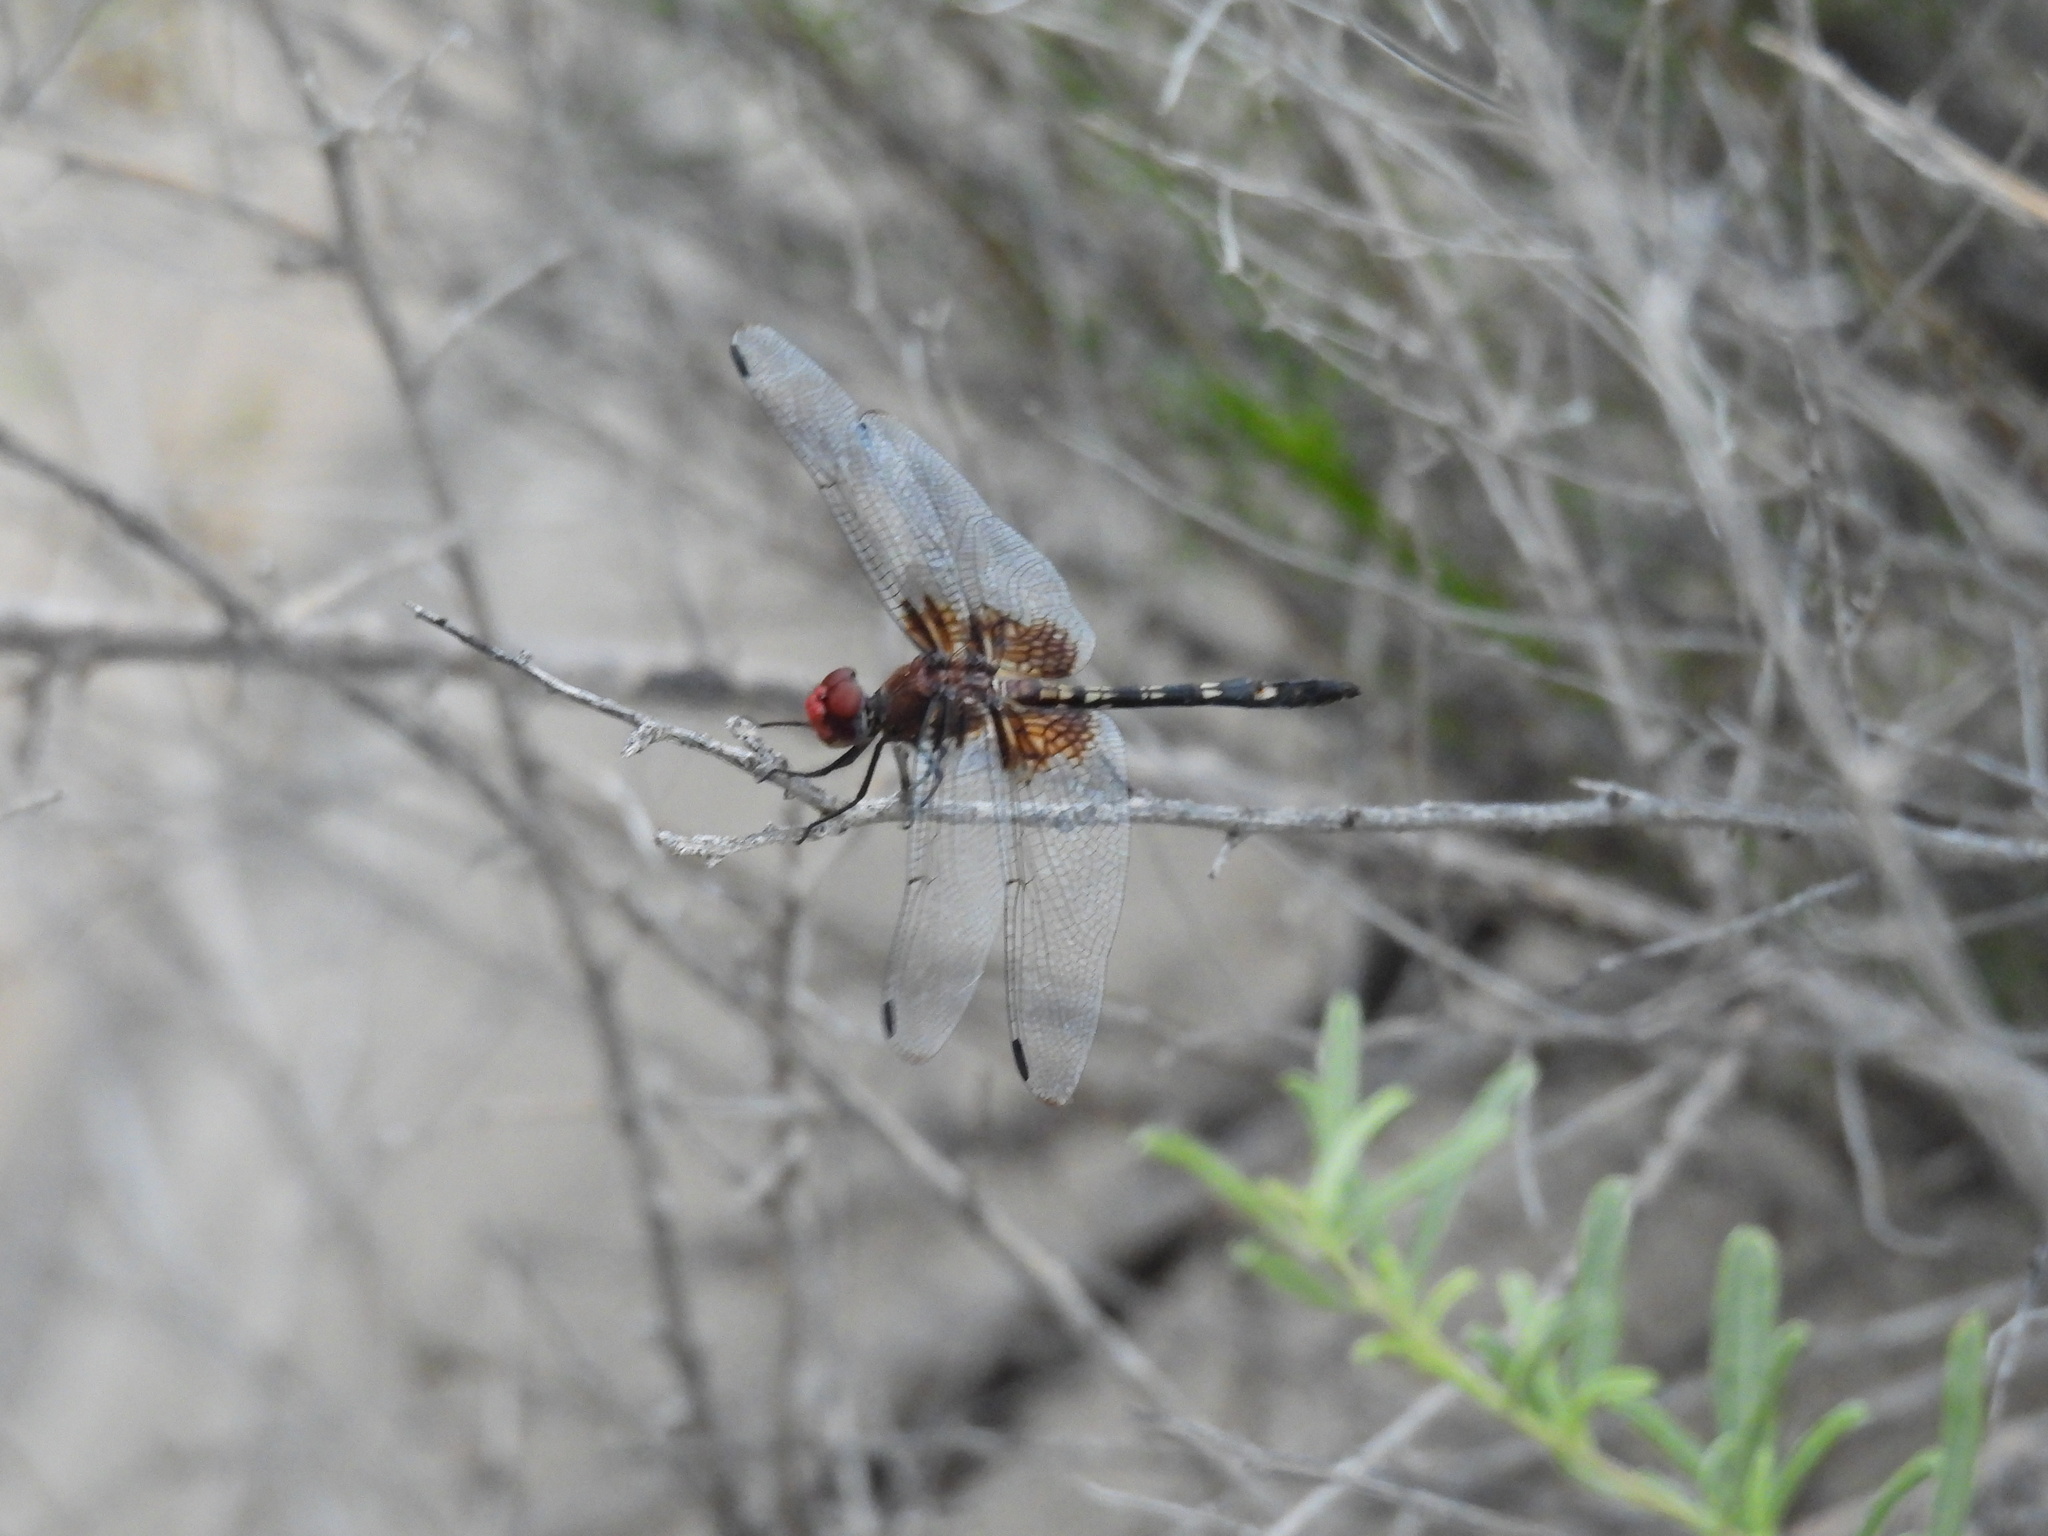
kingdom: Animalia
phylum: Arthropoda
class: Insecta
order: Odonata
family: Libellulidae
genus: Dythemis
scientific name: Dythemis fugax
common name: Checkered setwing
